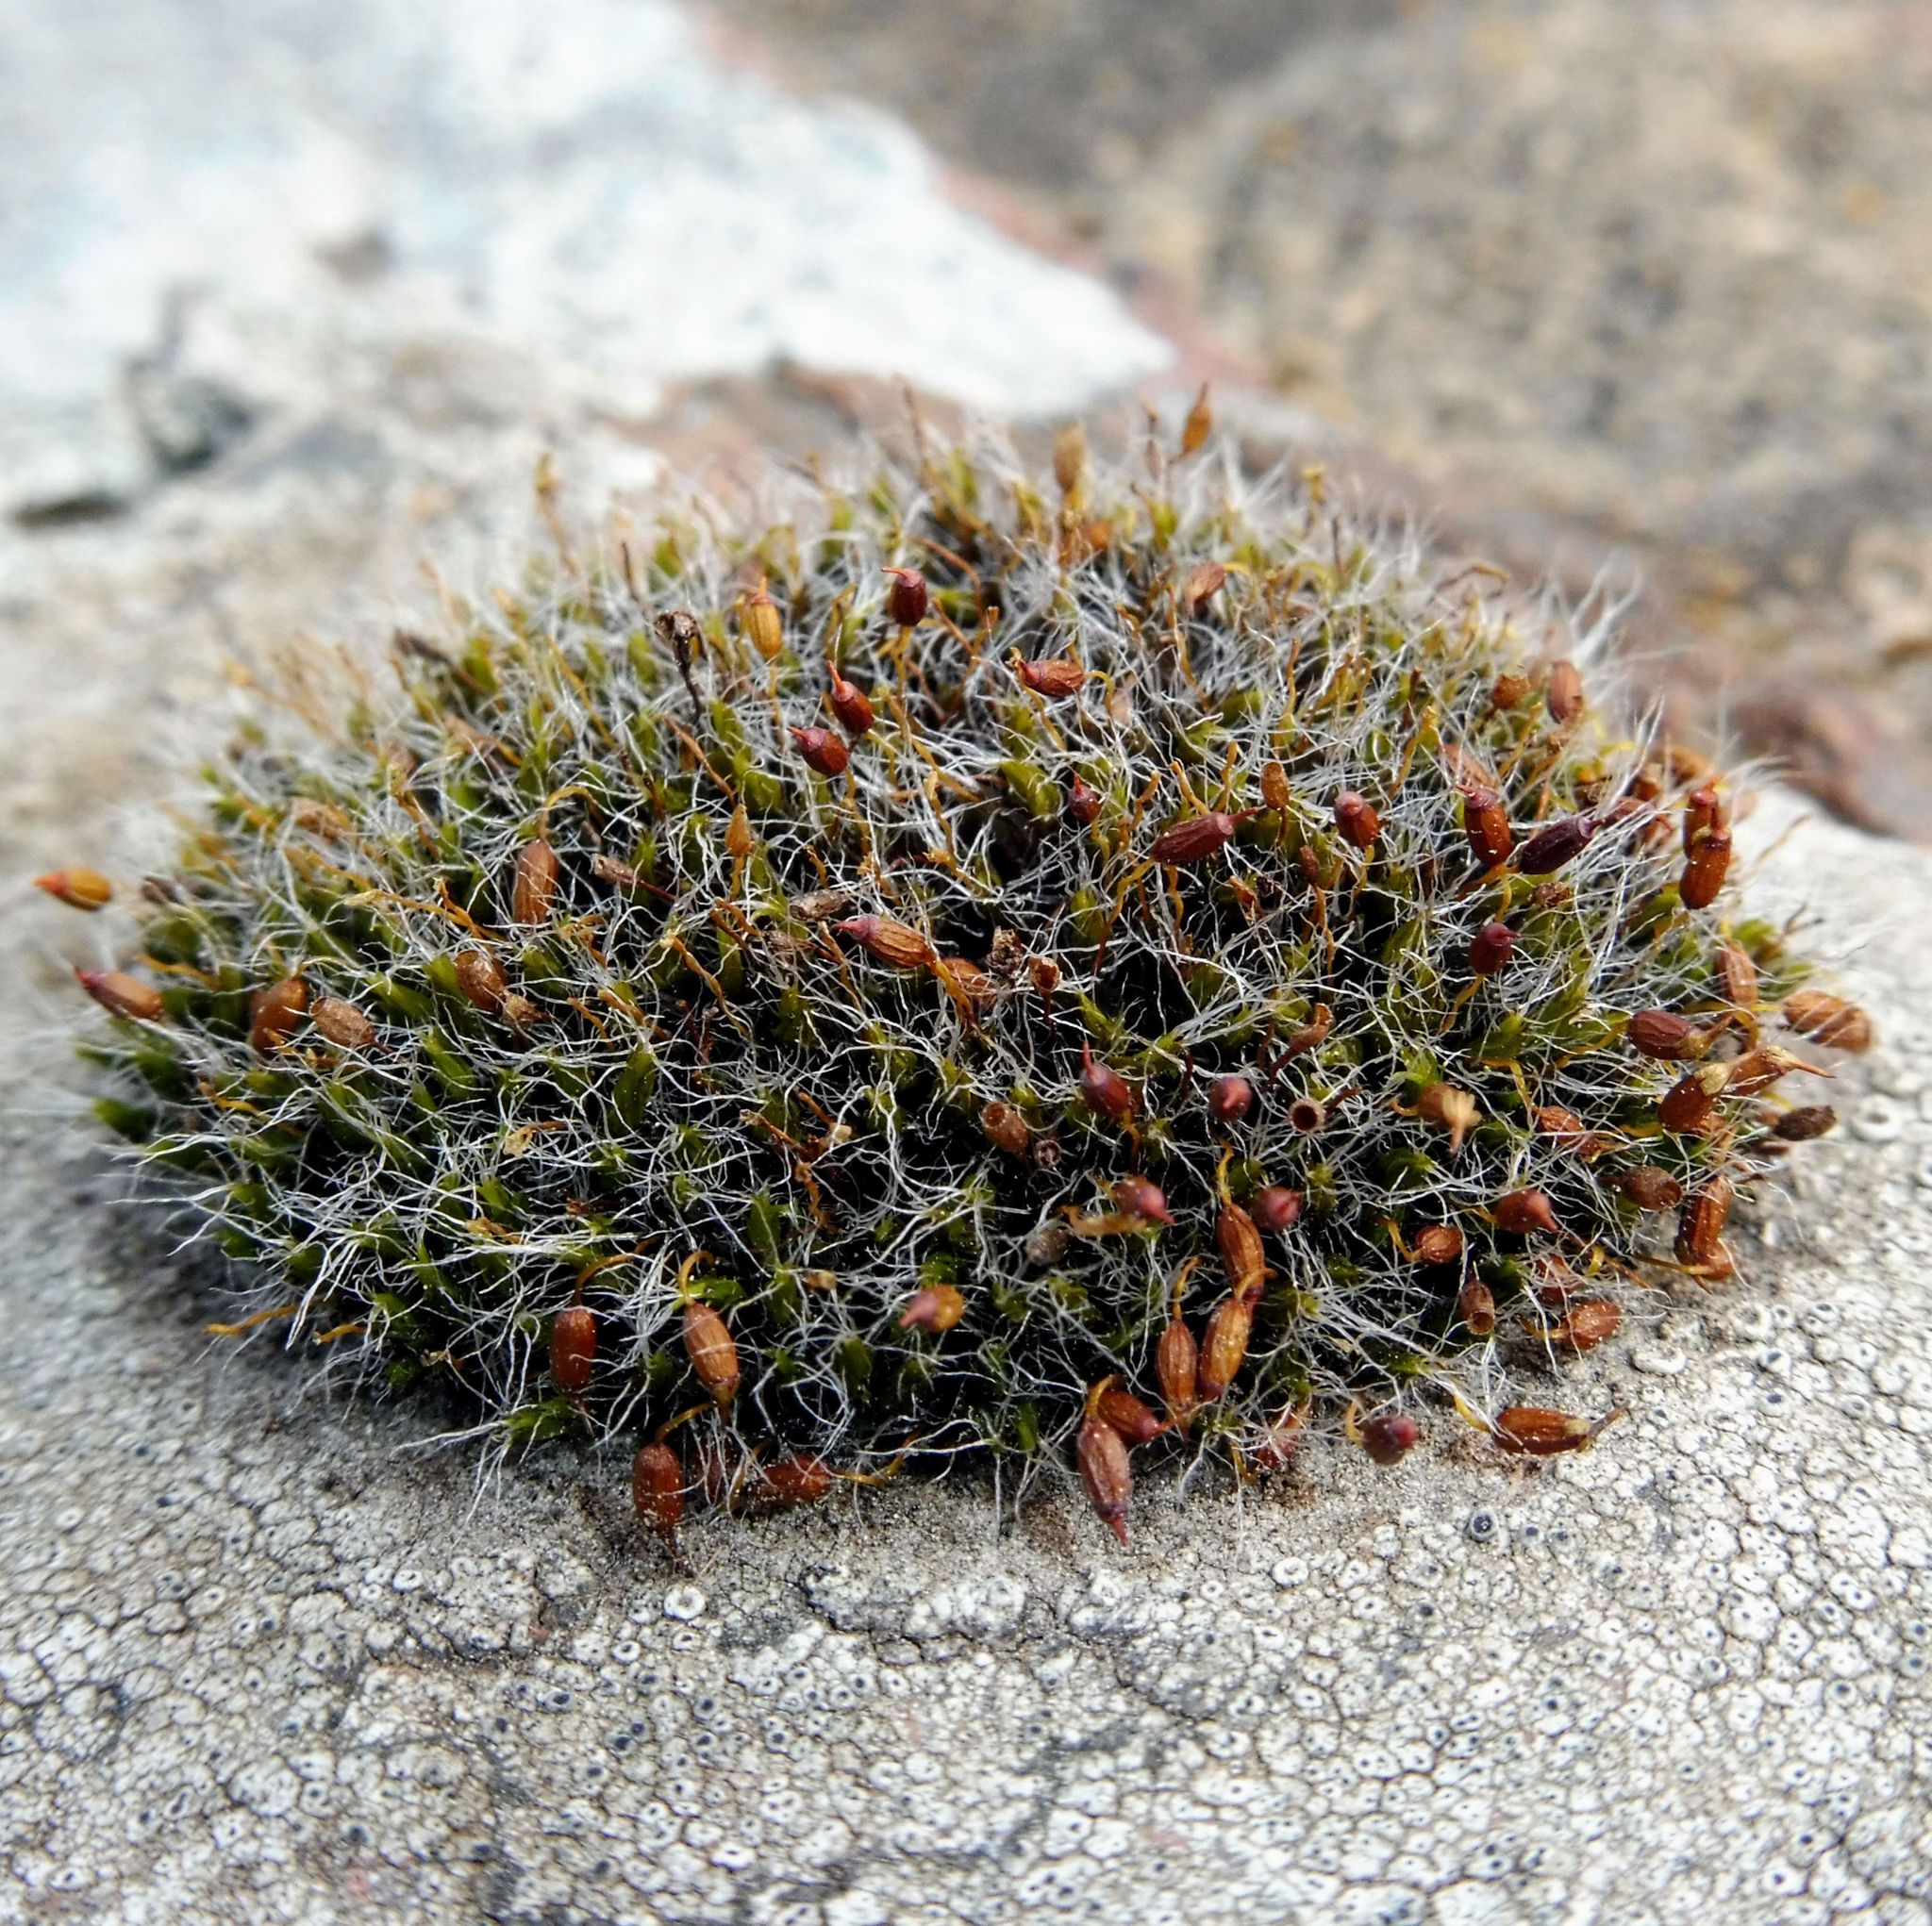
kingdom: Plantae
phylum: Bryophyta
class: Bryopsida
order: Grimmiales
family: Grimmiaceae
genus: Grimmia
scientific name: Grimmia pulvinata
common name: Grey-cushioned grimmia
